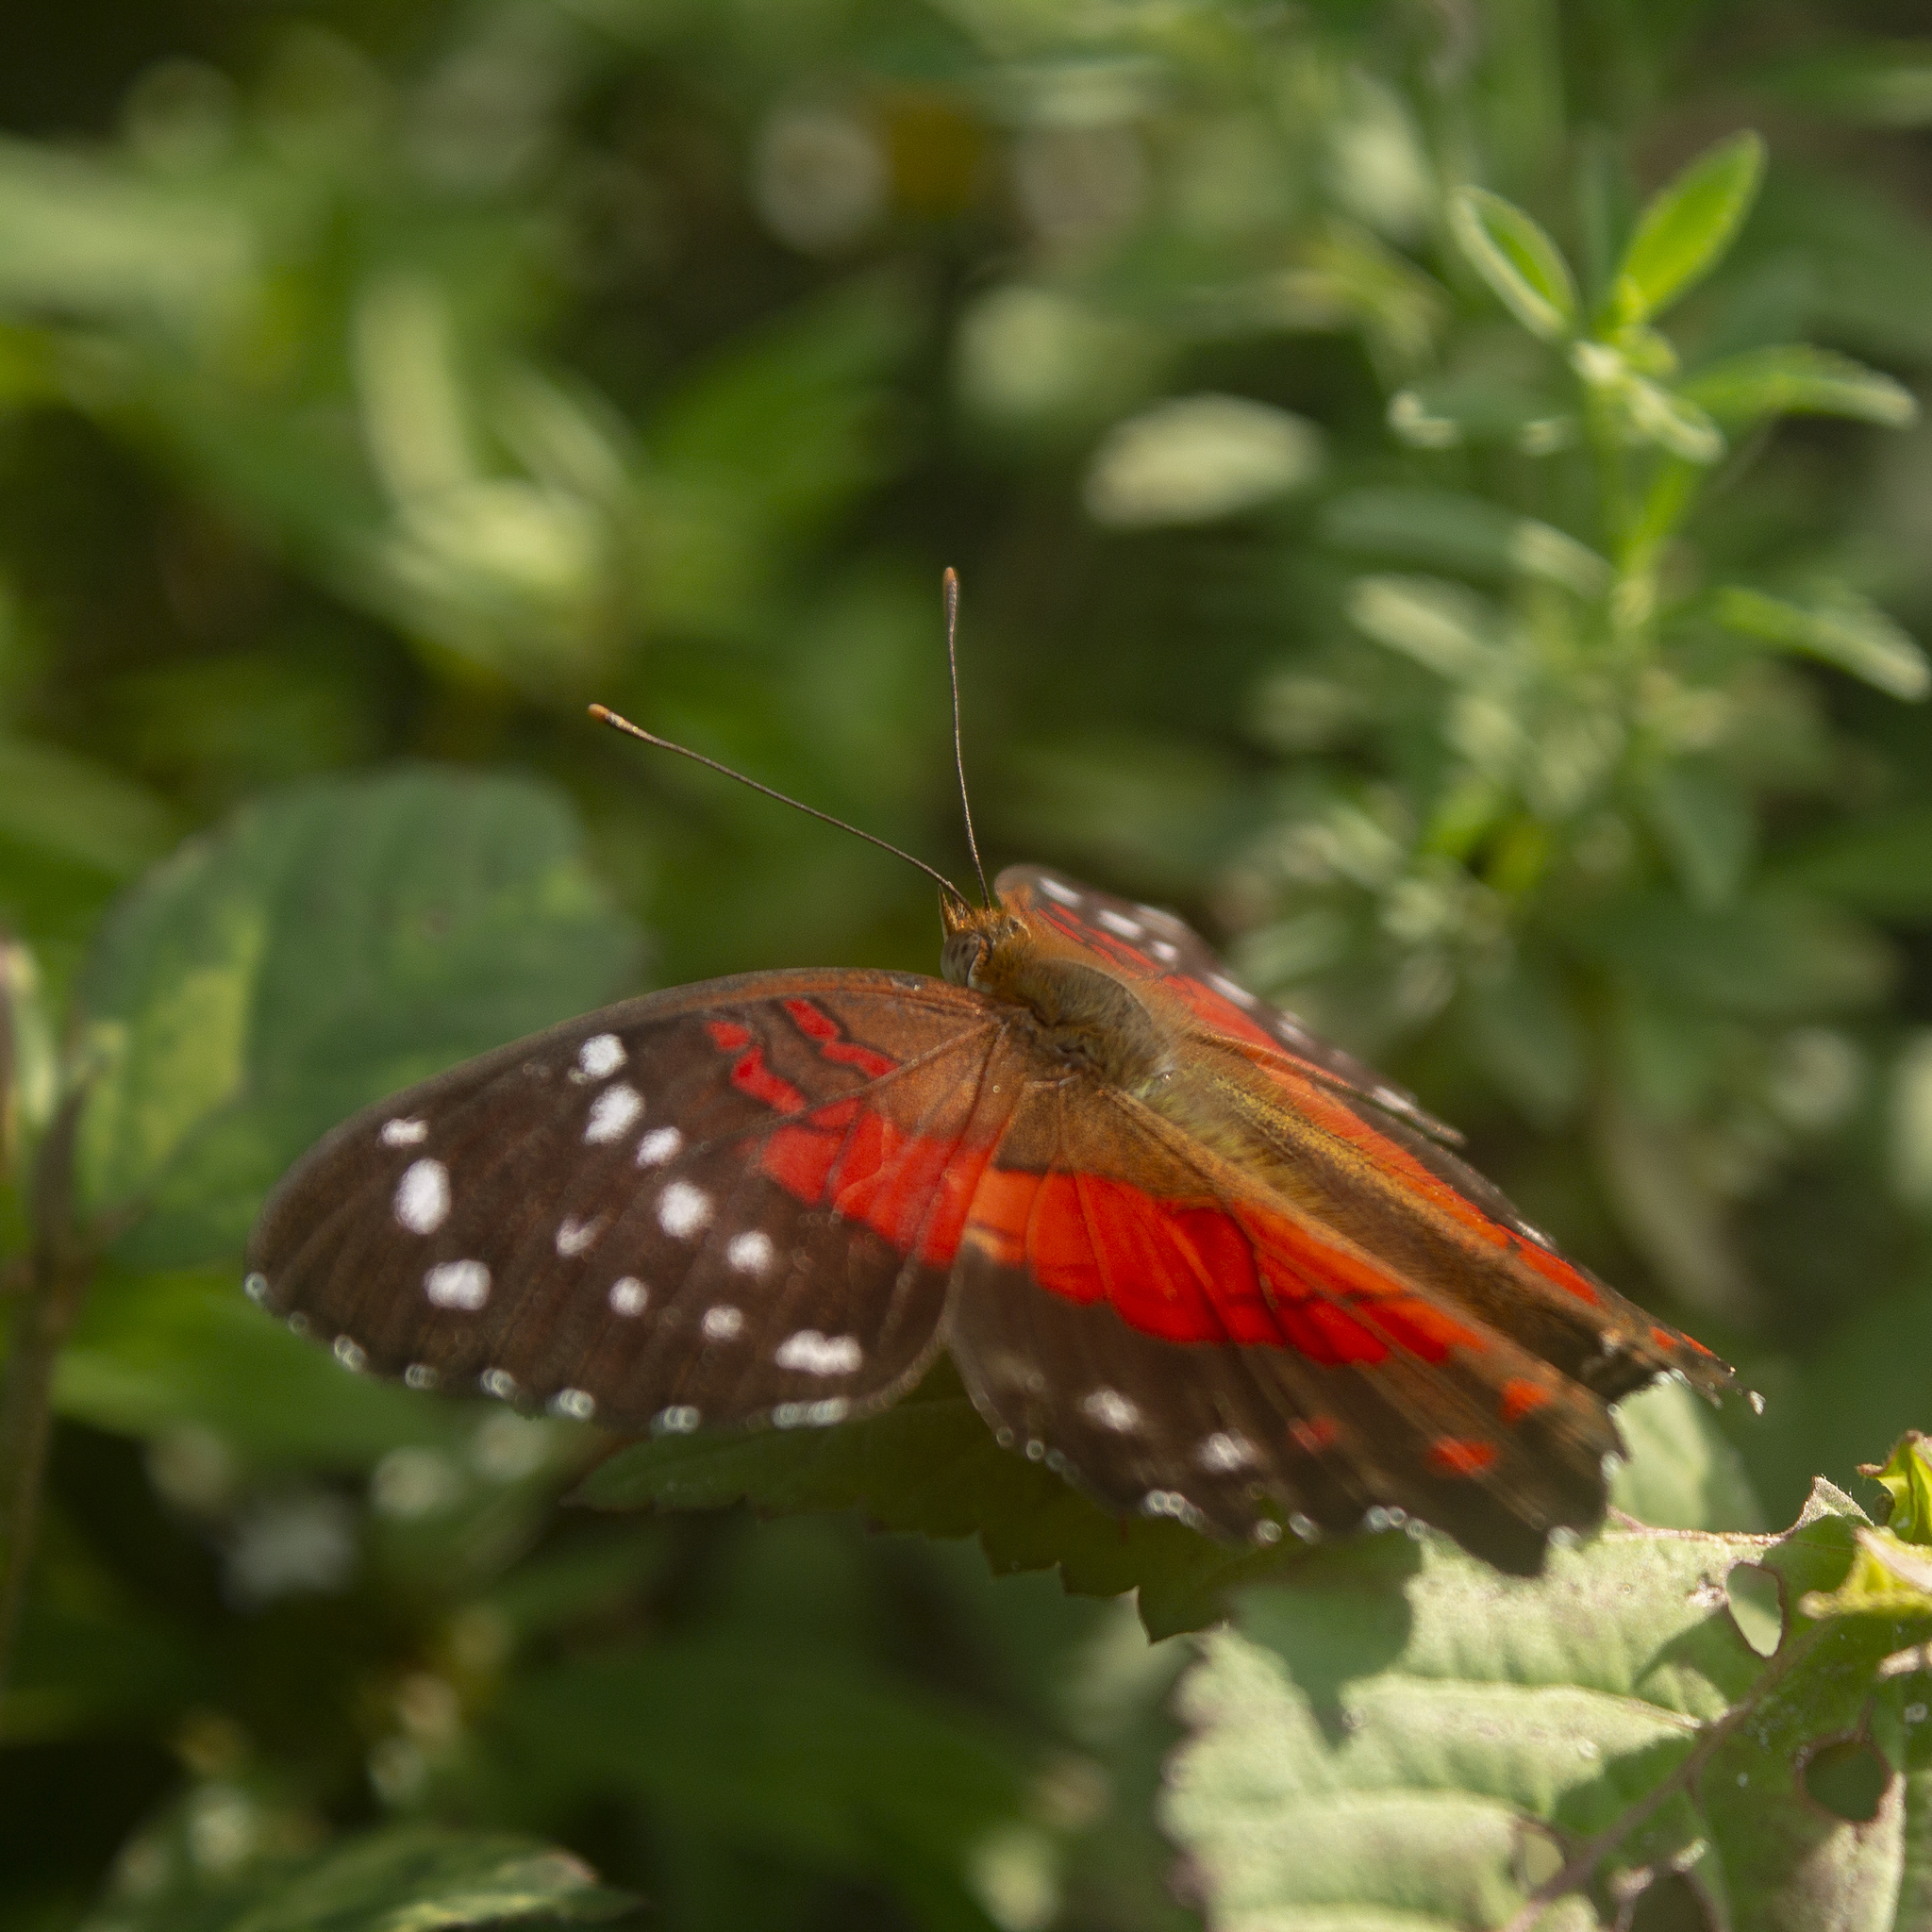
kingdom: Animalia
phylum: Arthropoda
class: Insecta
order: Lepidoptera
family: Nymphalidae
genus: Anartia
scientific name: Anartia amathea
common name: Red peacock
